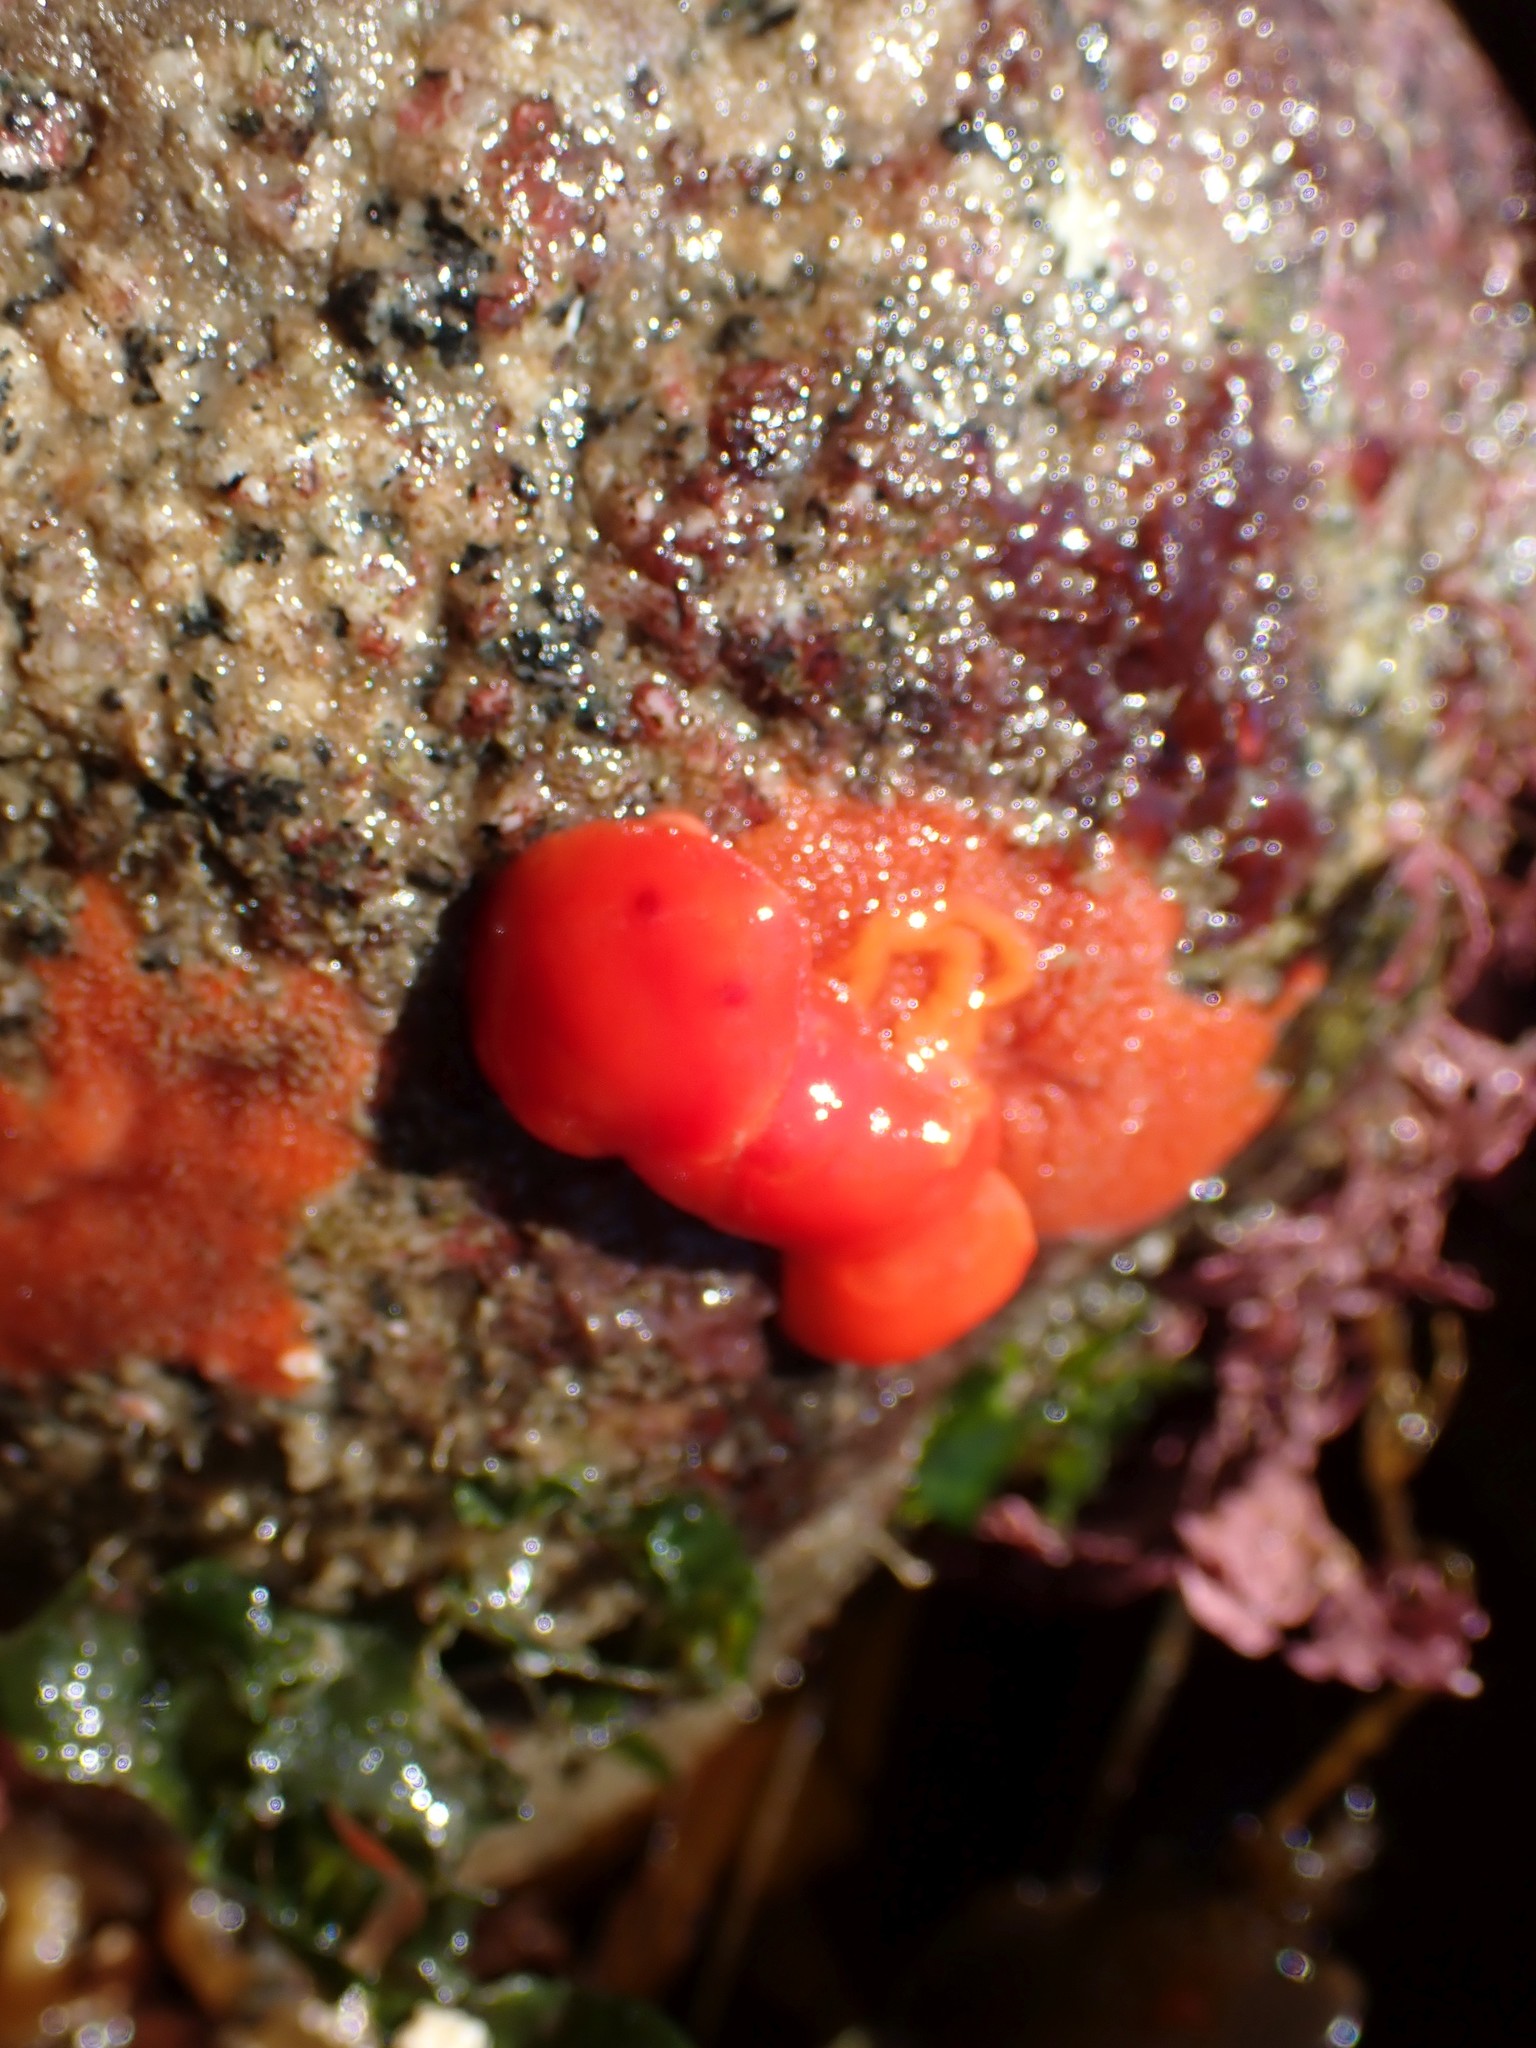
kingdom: Animalia
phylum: Mollusca
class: Gastropoda
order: Nudibranchia
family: Discodorididae
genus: Rostanga
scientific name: Rostanga pulchra
